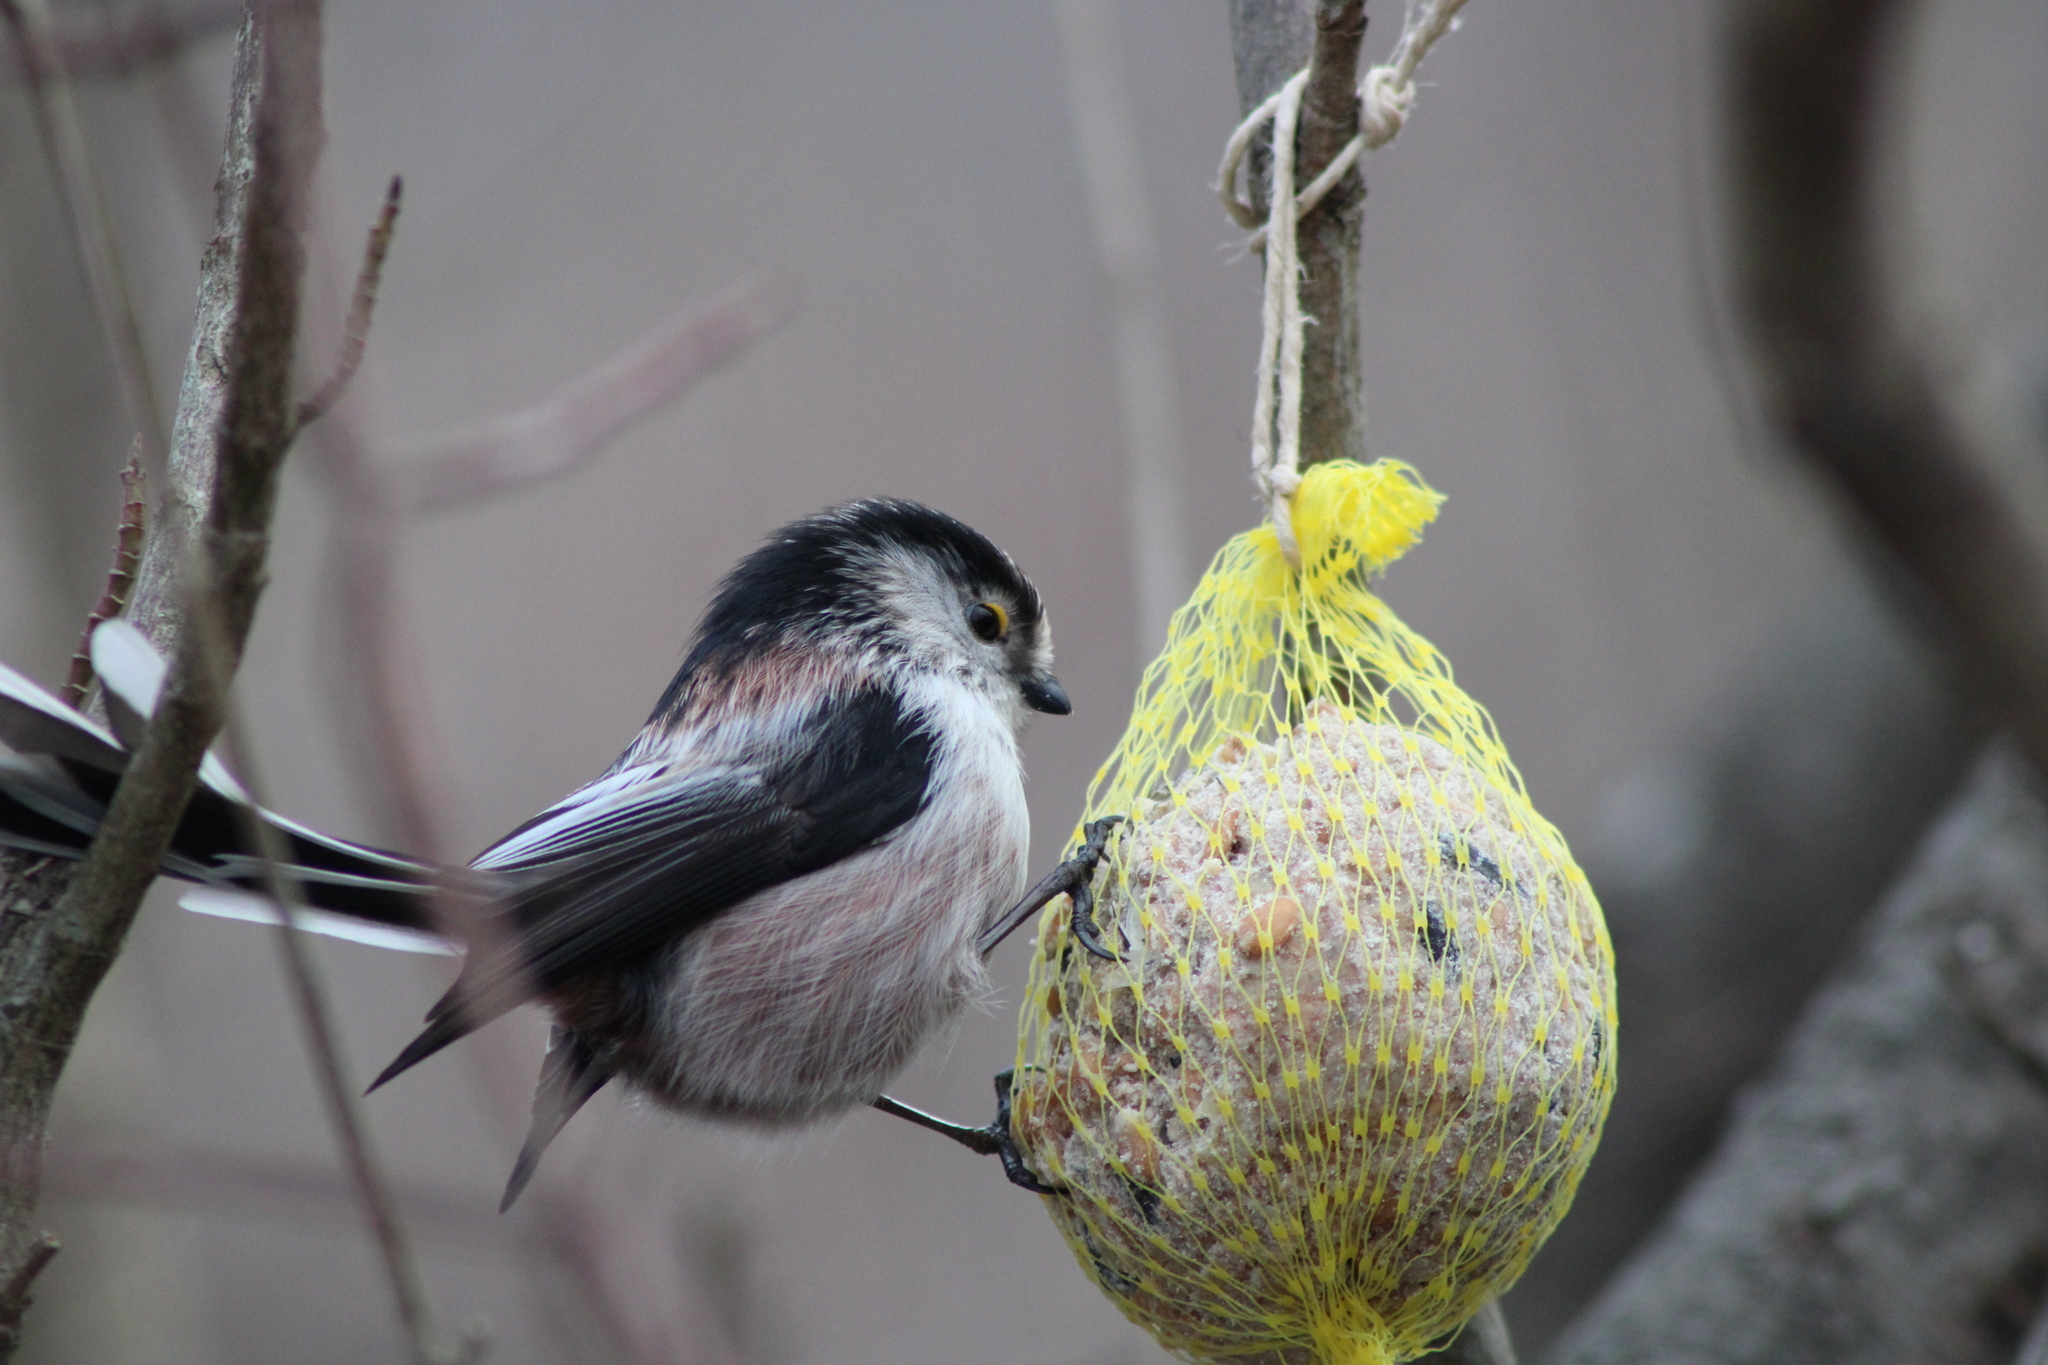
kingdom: Animalia
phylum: Chordata
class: Aves
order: Passeriformes
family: Aegithalidae
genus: Aegithalos
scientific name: Aegithalos caudatus
